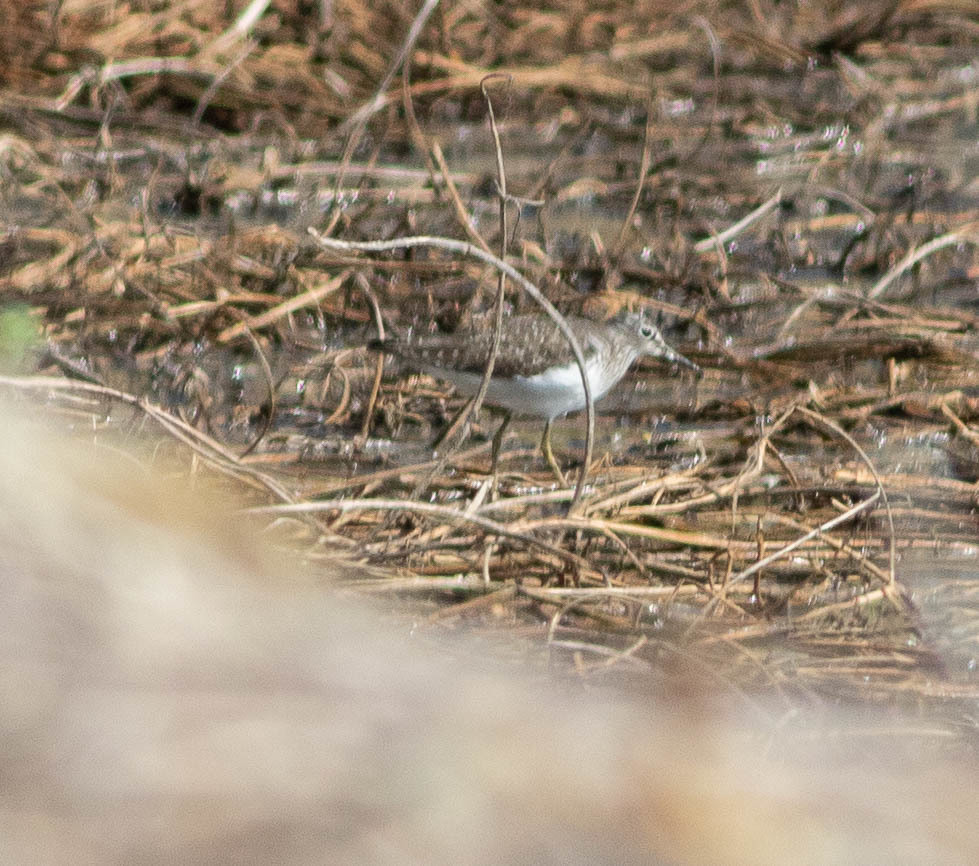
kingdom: Animalia
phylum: Chordata
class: Aves
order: Charadriiformes
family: Scolopacidae
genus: Tringa
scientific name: Tringa solitaria
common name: Solitary sandpiper
